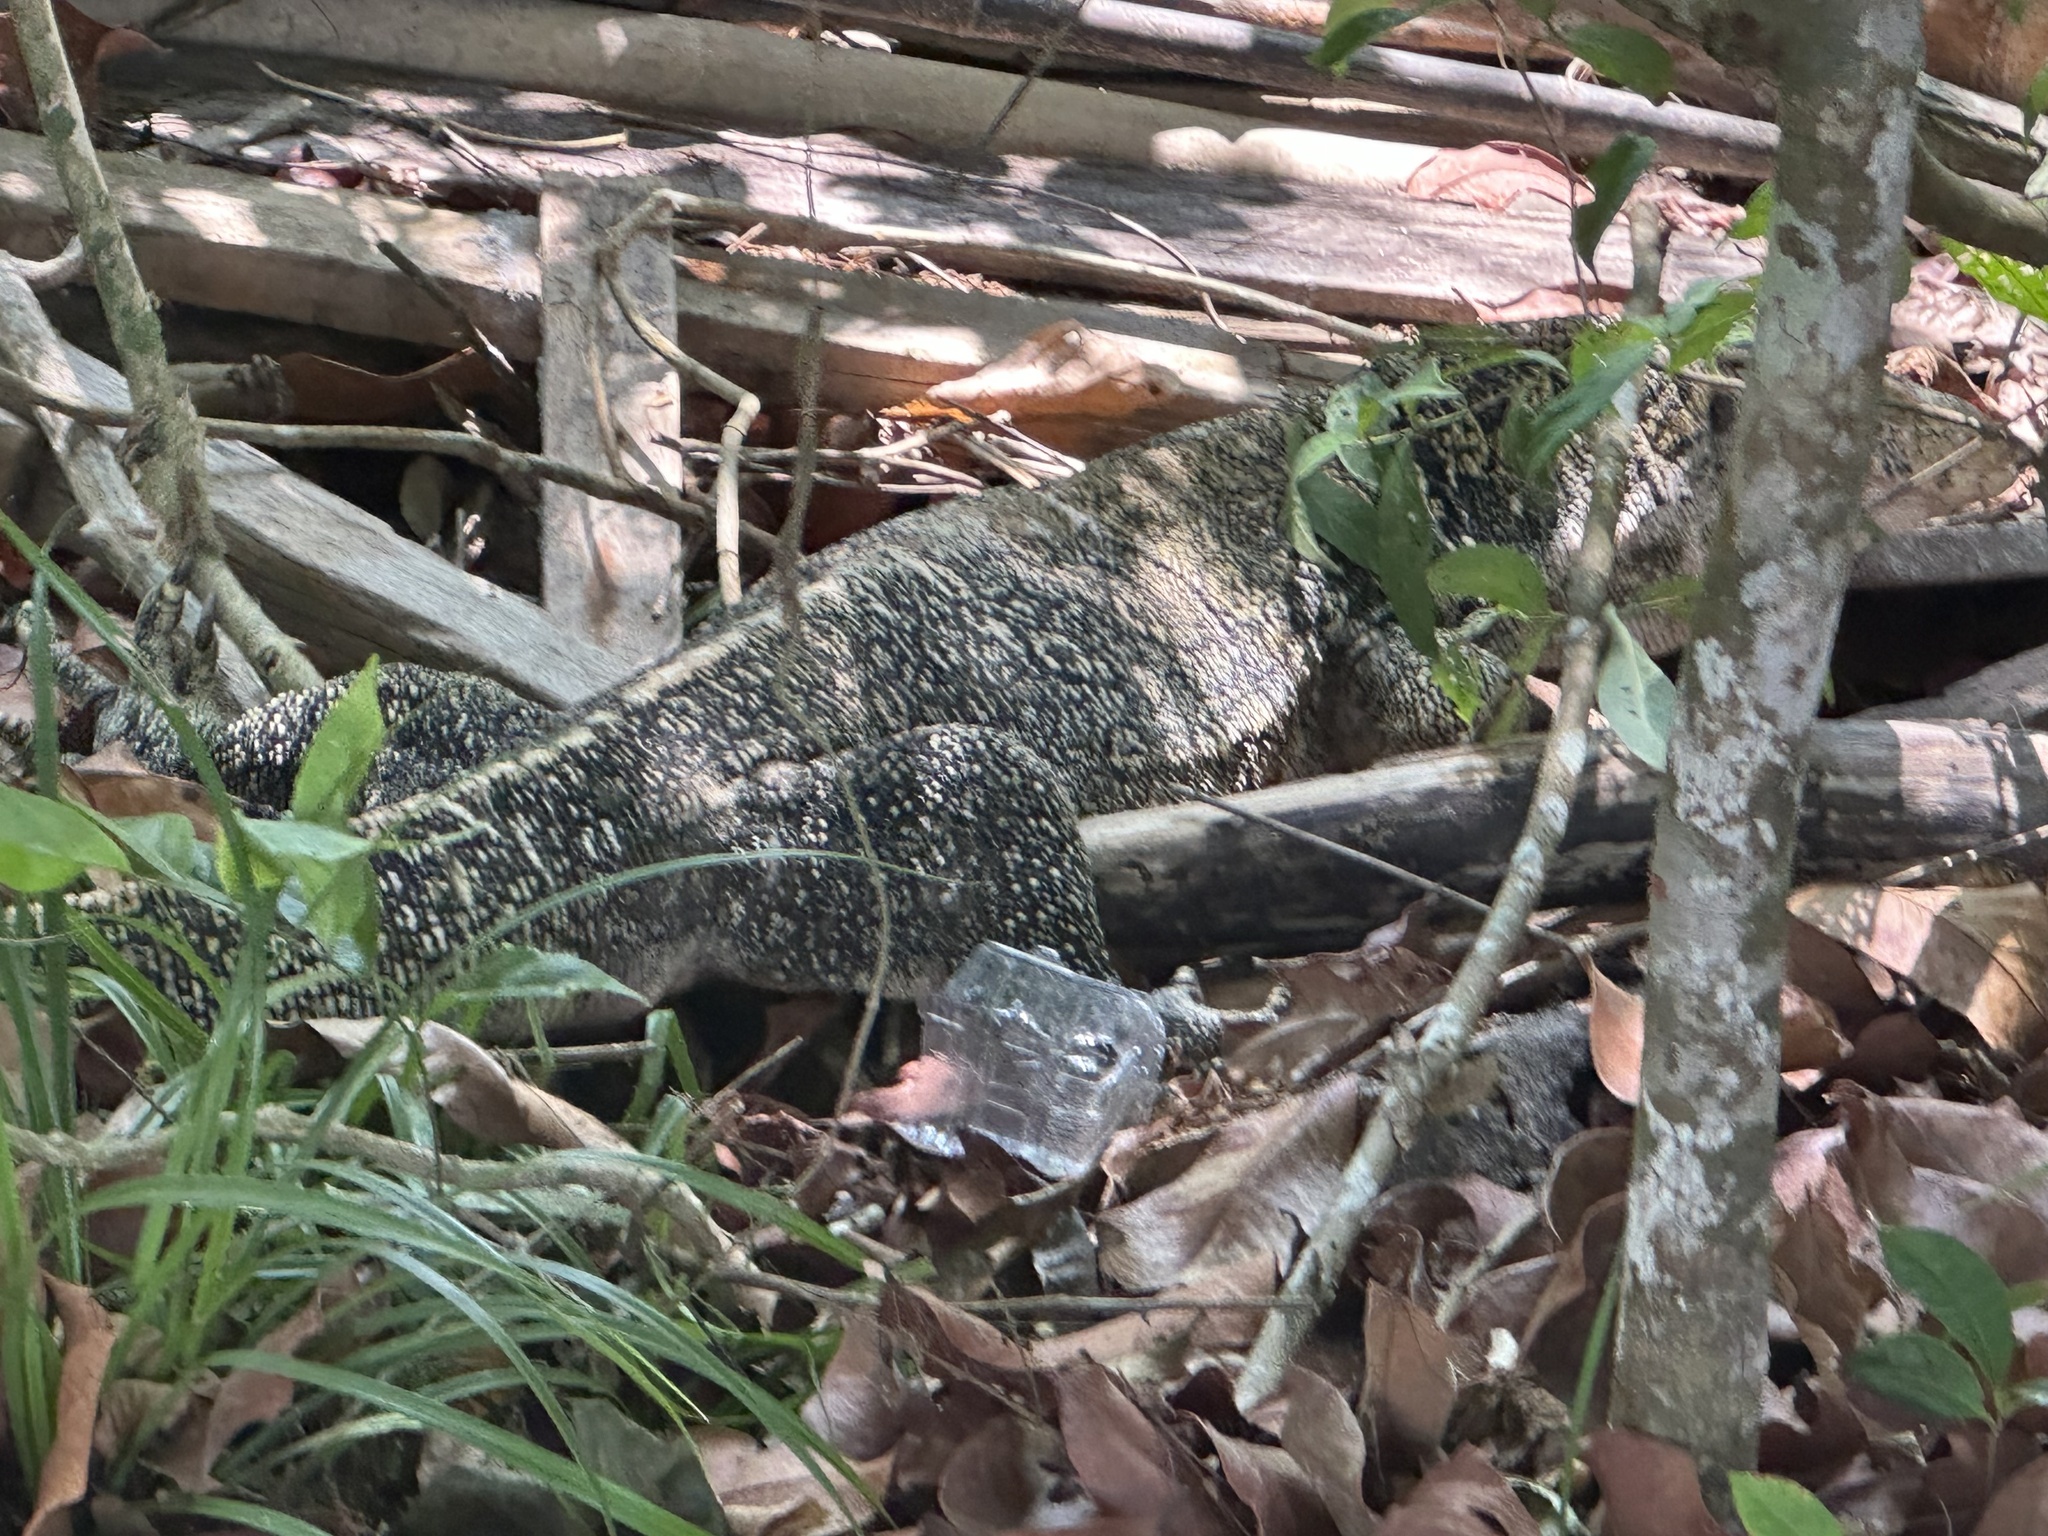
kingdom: Animalia
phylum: Chordata
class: Squamata
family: Varanidae
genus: Varanus
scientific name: Varanus salvator
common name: Common water monitor
